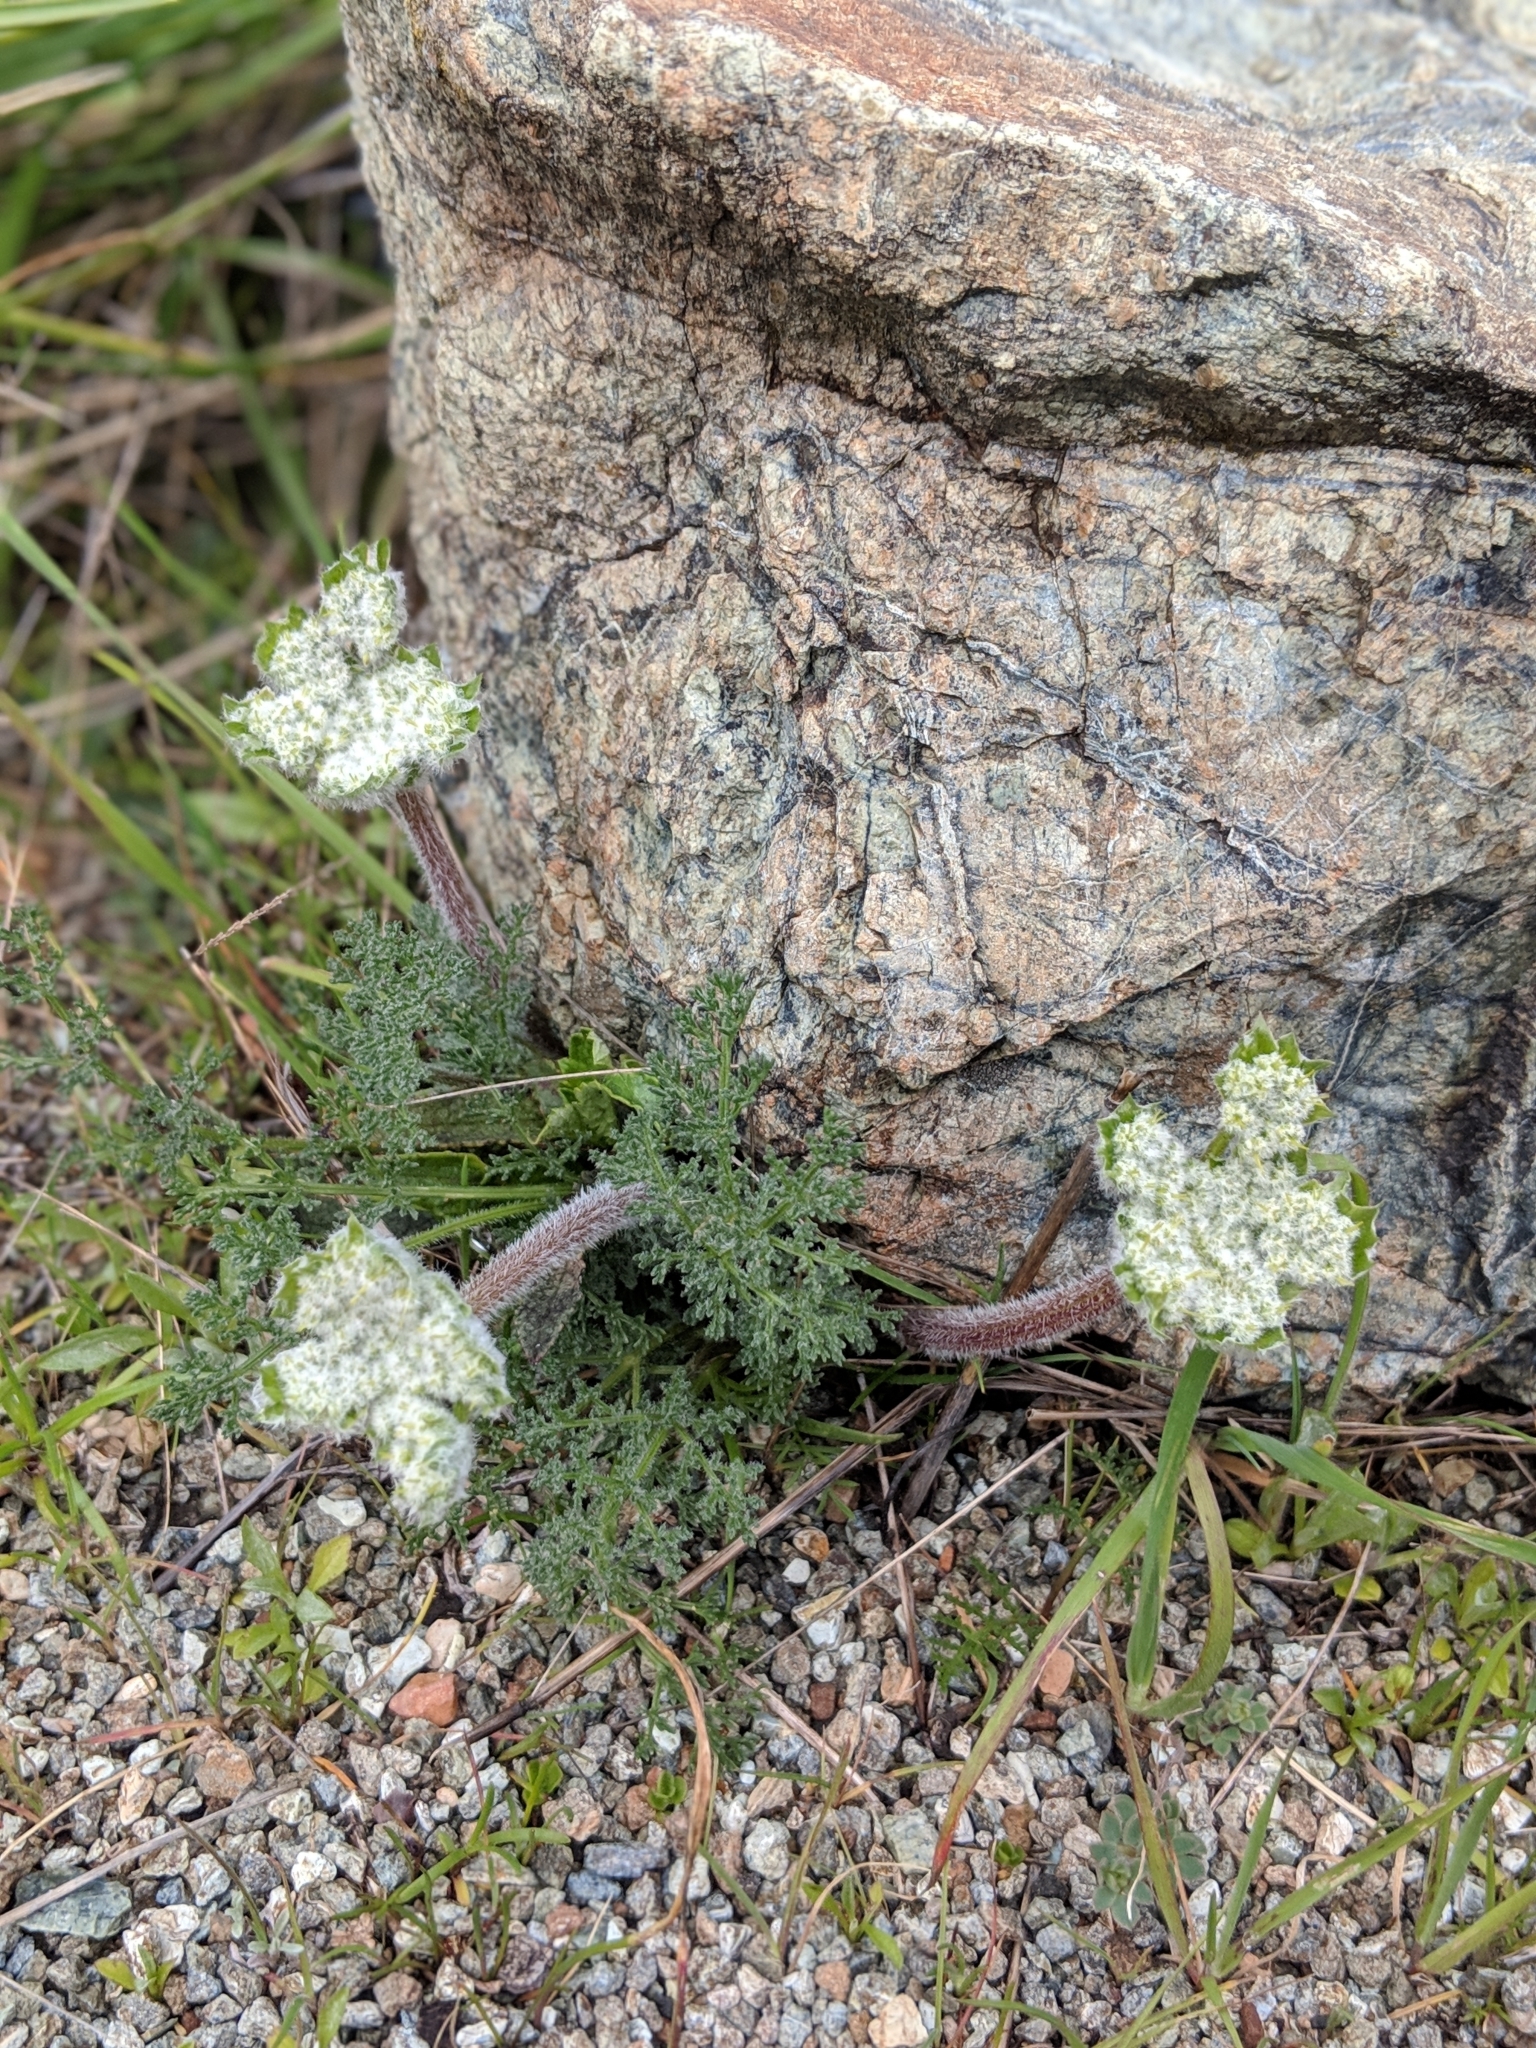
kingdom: Plantae
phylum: Tracheophyta
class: Magnoliopsida
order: Apiales
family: Apiaceae
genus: Lomatium
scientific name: Lomatium dasycarpum
